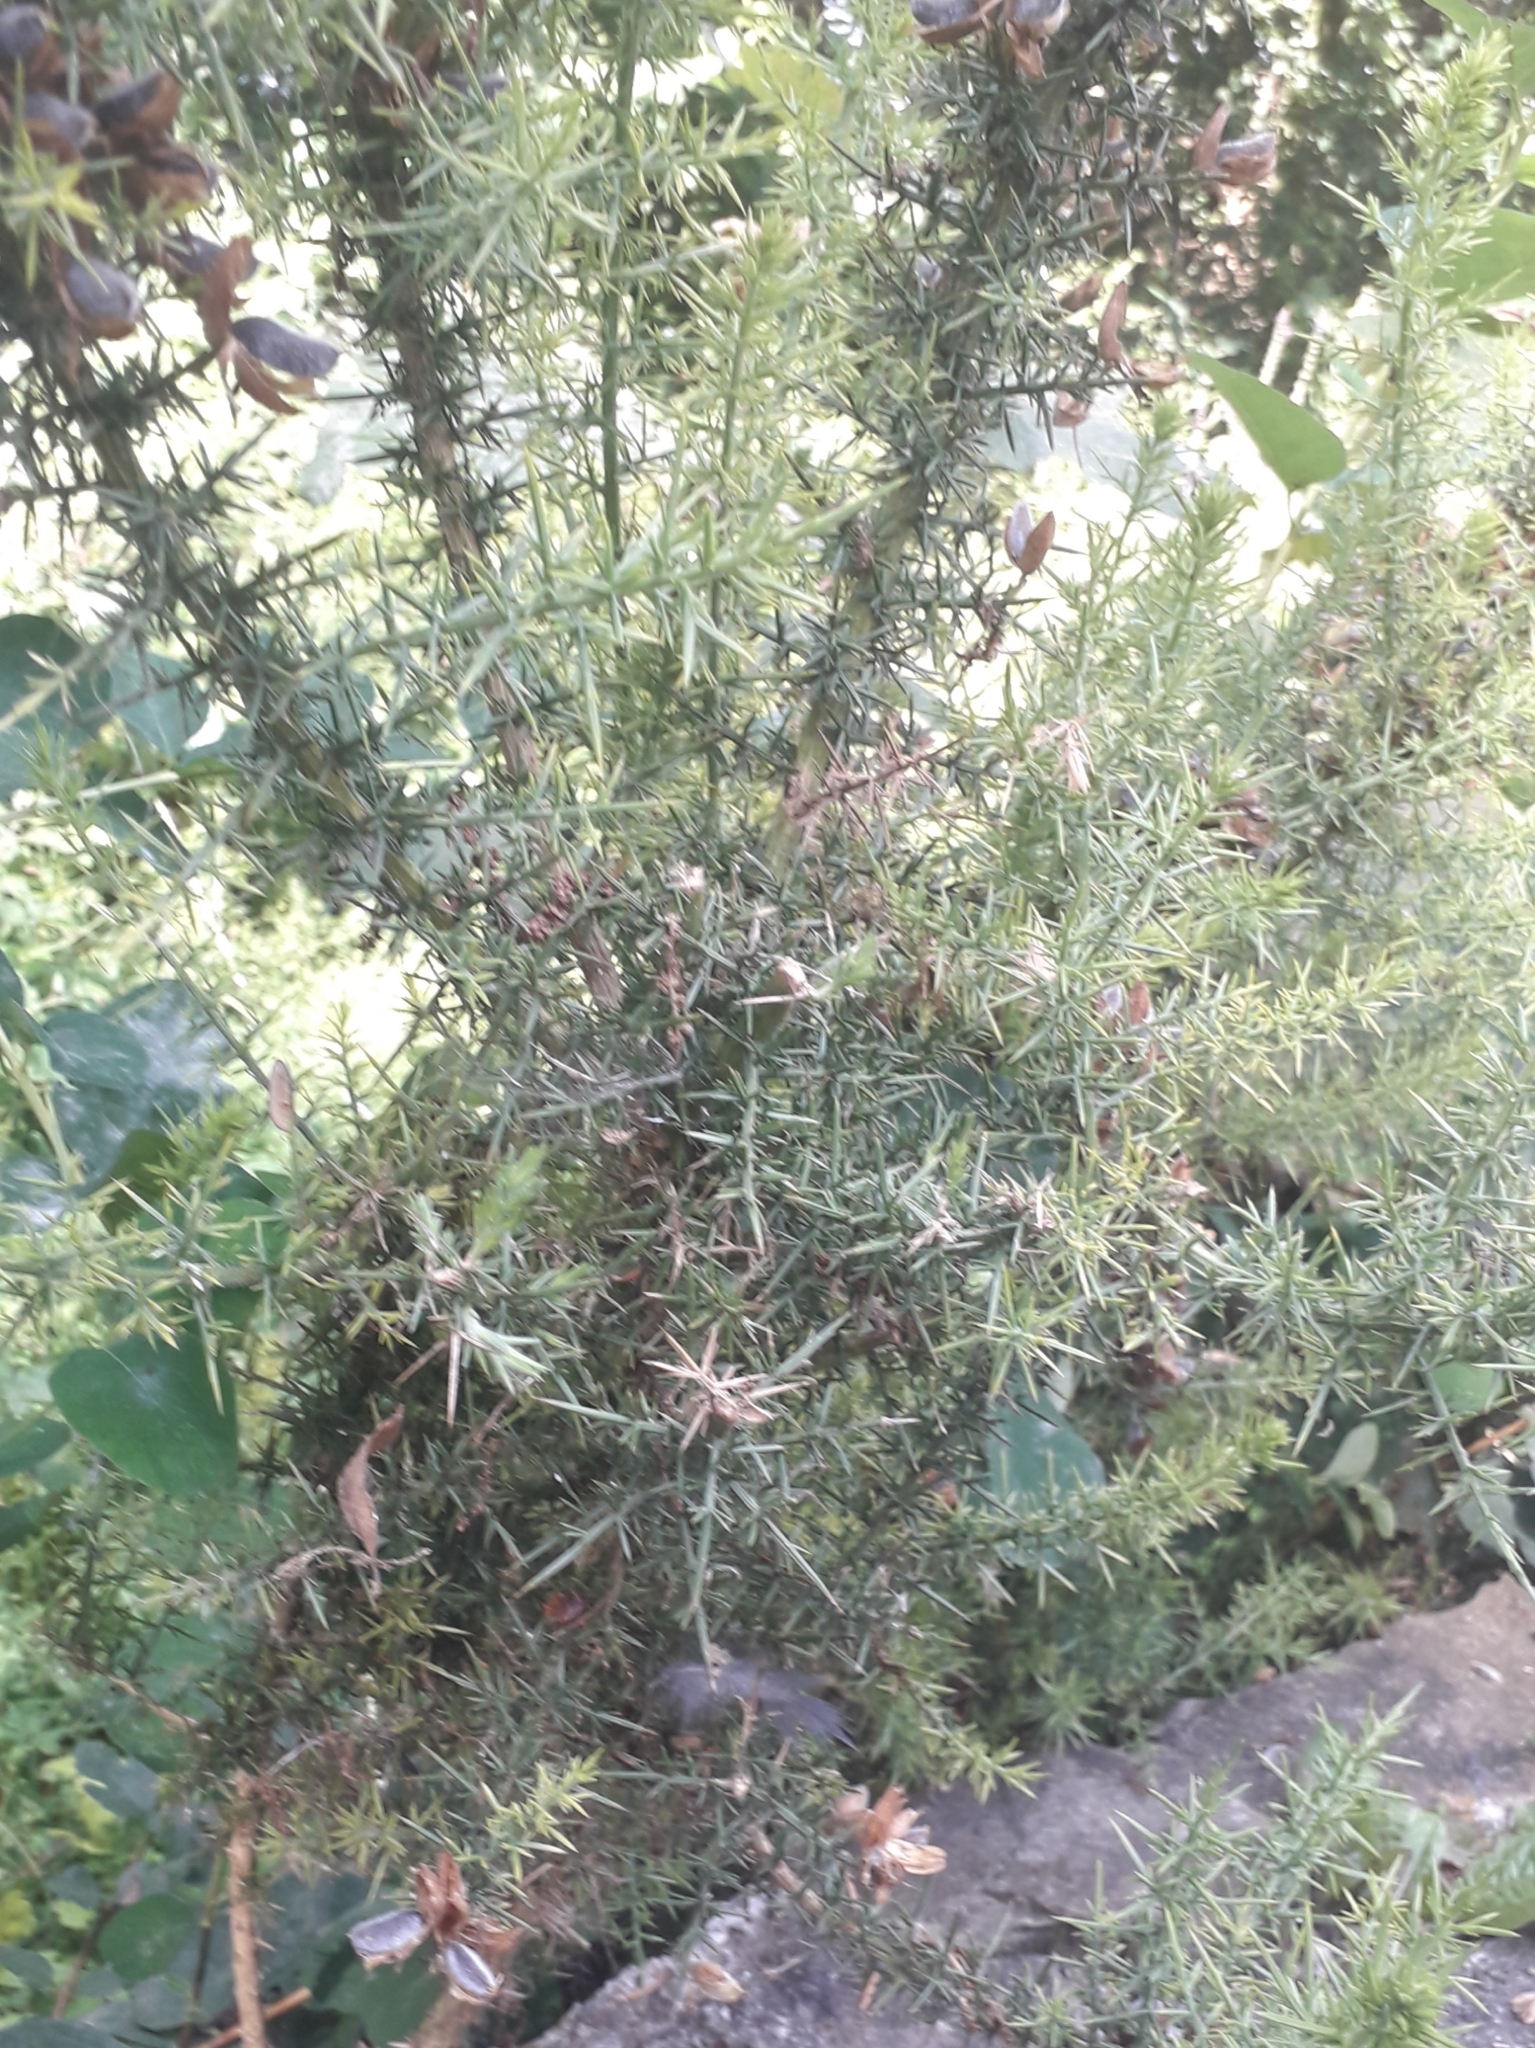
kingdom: Plantae
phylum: Tracheophyta
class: Magnoliopsida
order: Fabales
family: Fabaceae
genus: Ulex
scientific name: Ulex europaeus
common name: Common gorse
